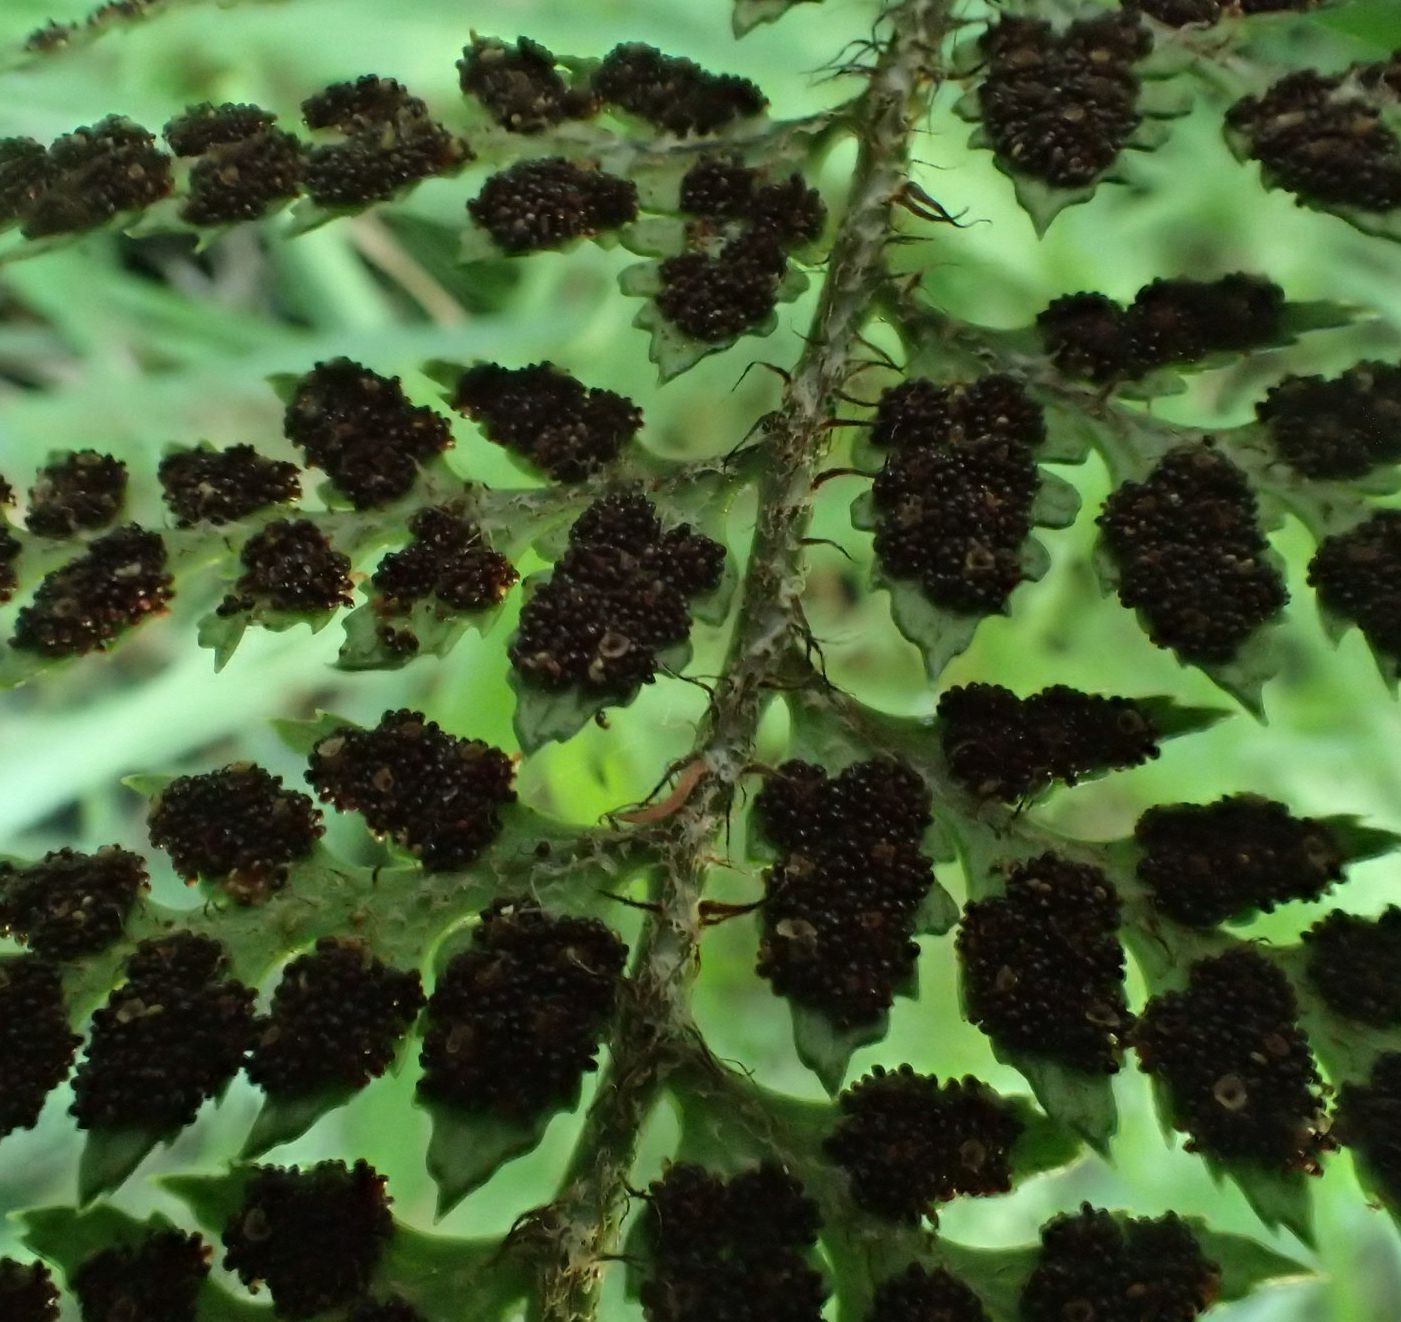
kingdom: Plantae
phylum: Tracheophyta
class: Polypodiopsida
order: Polypodiales
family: Dryopteridaceae
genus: Polystichum
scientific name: Polystichum neozelandicum
